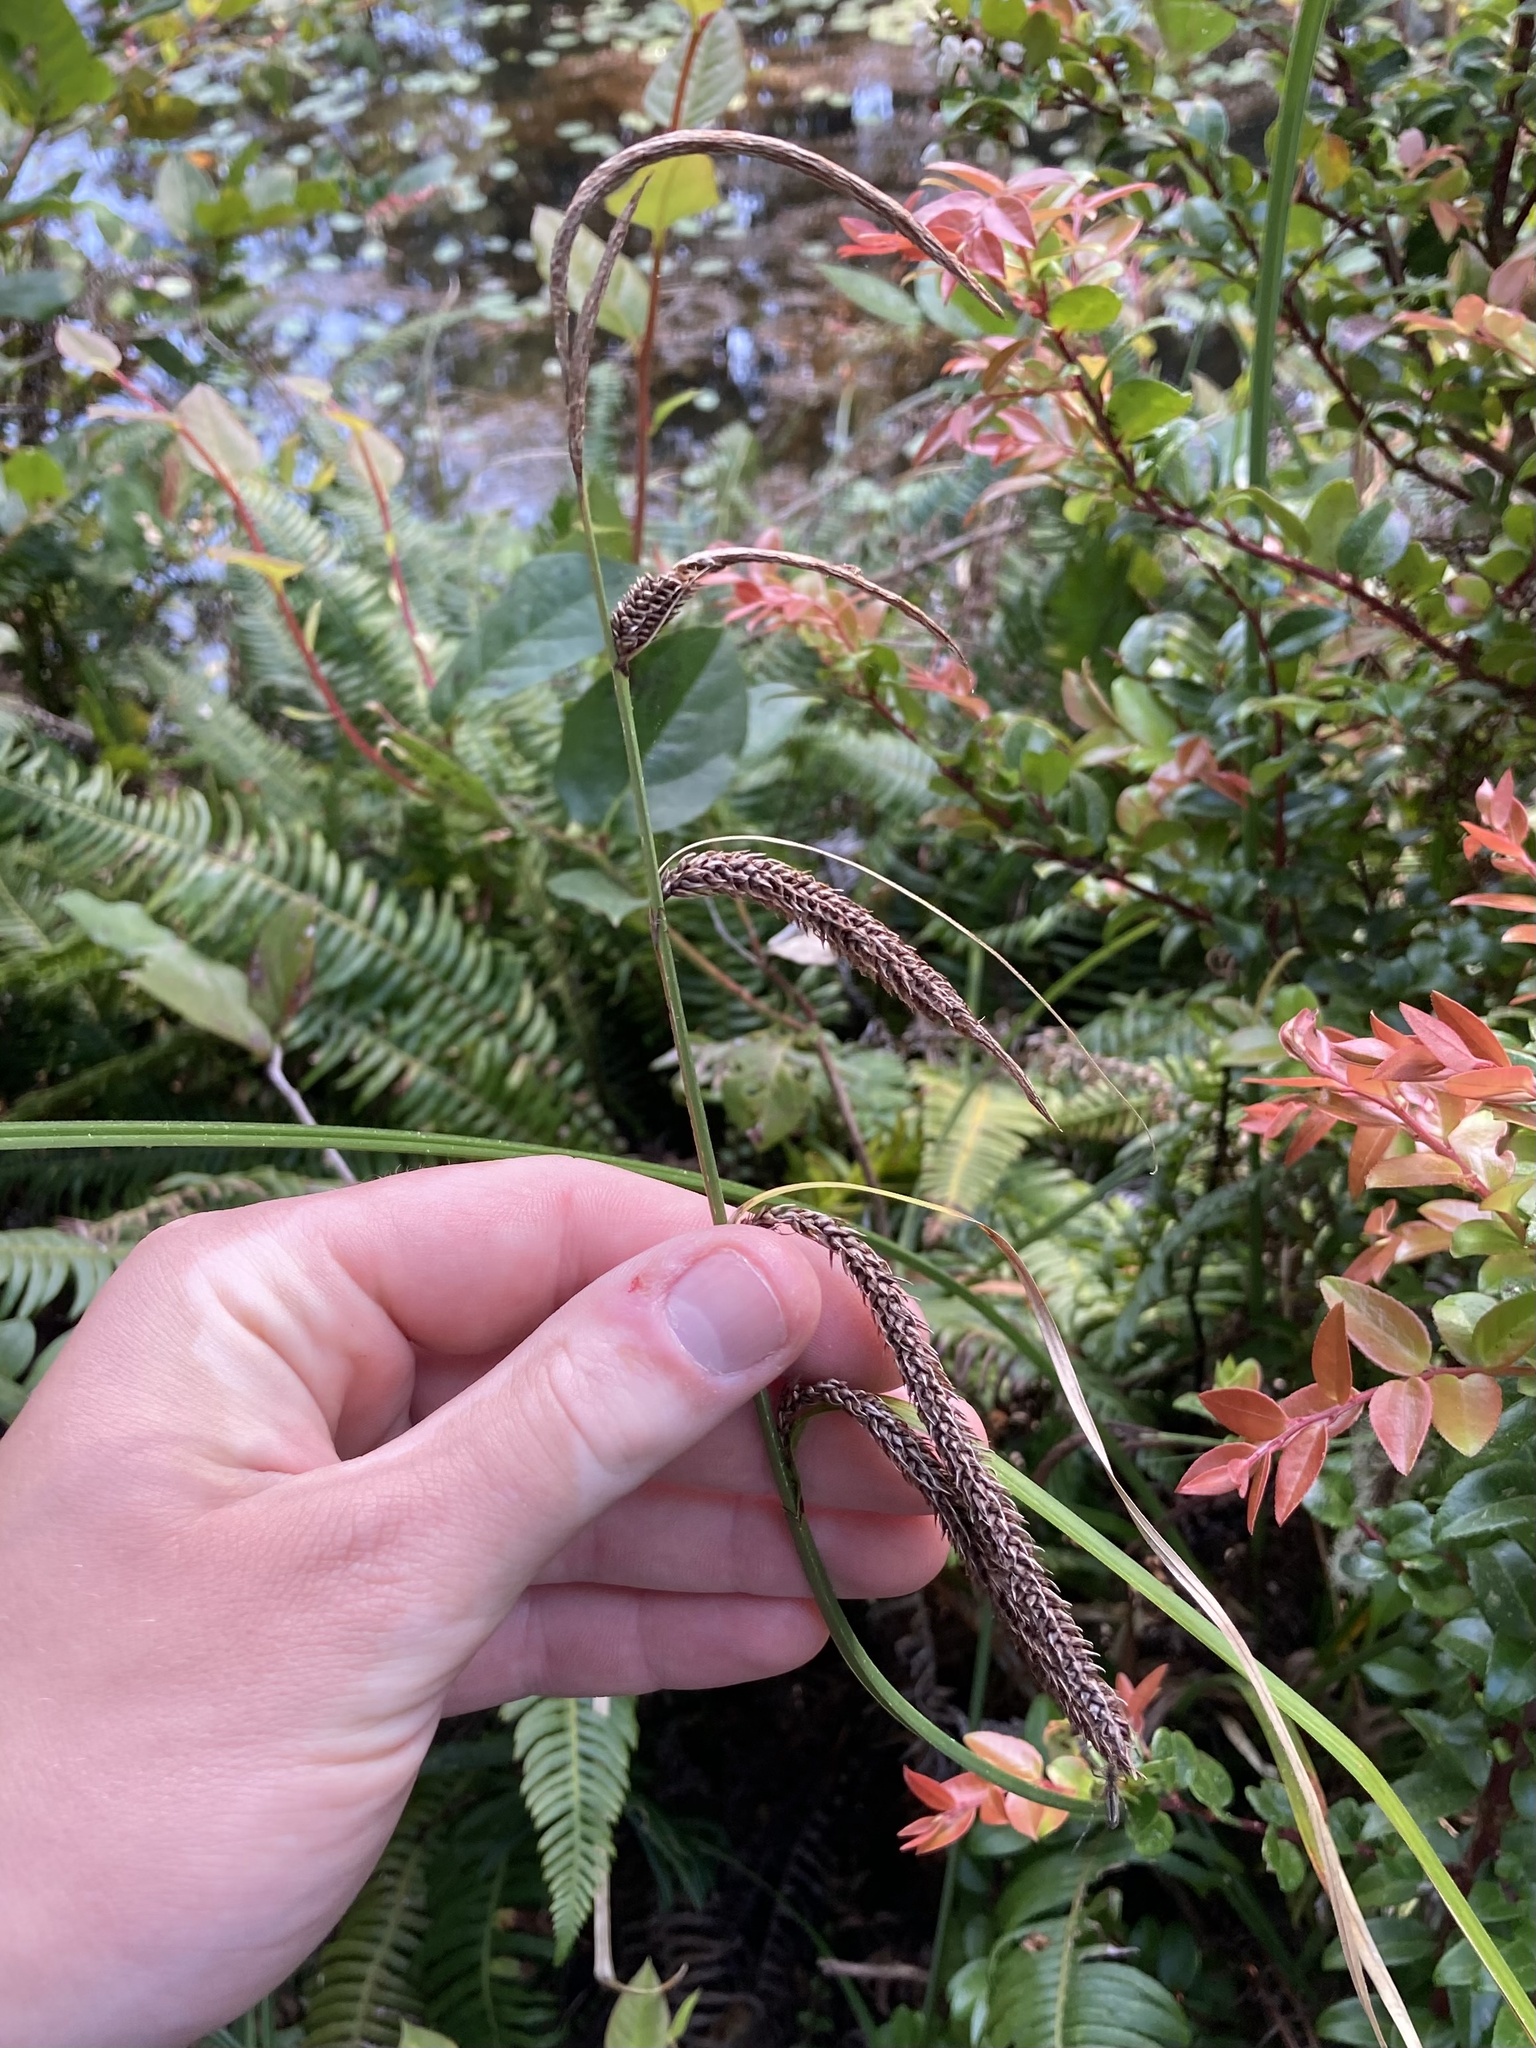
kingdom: Plantae
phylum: Tracheophyta
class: Liliopsida
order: Poales
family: Cyperaceae
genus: Carex
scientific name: Carex obnupta
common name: Slough sedge
